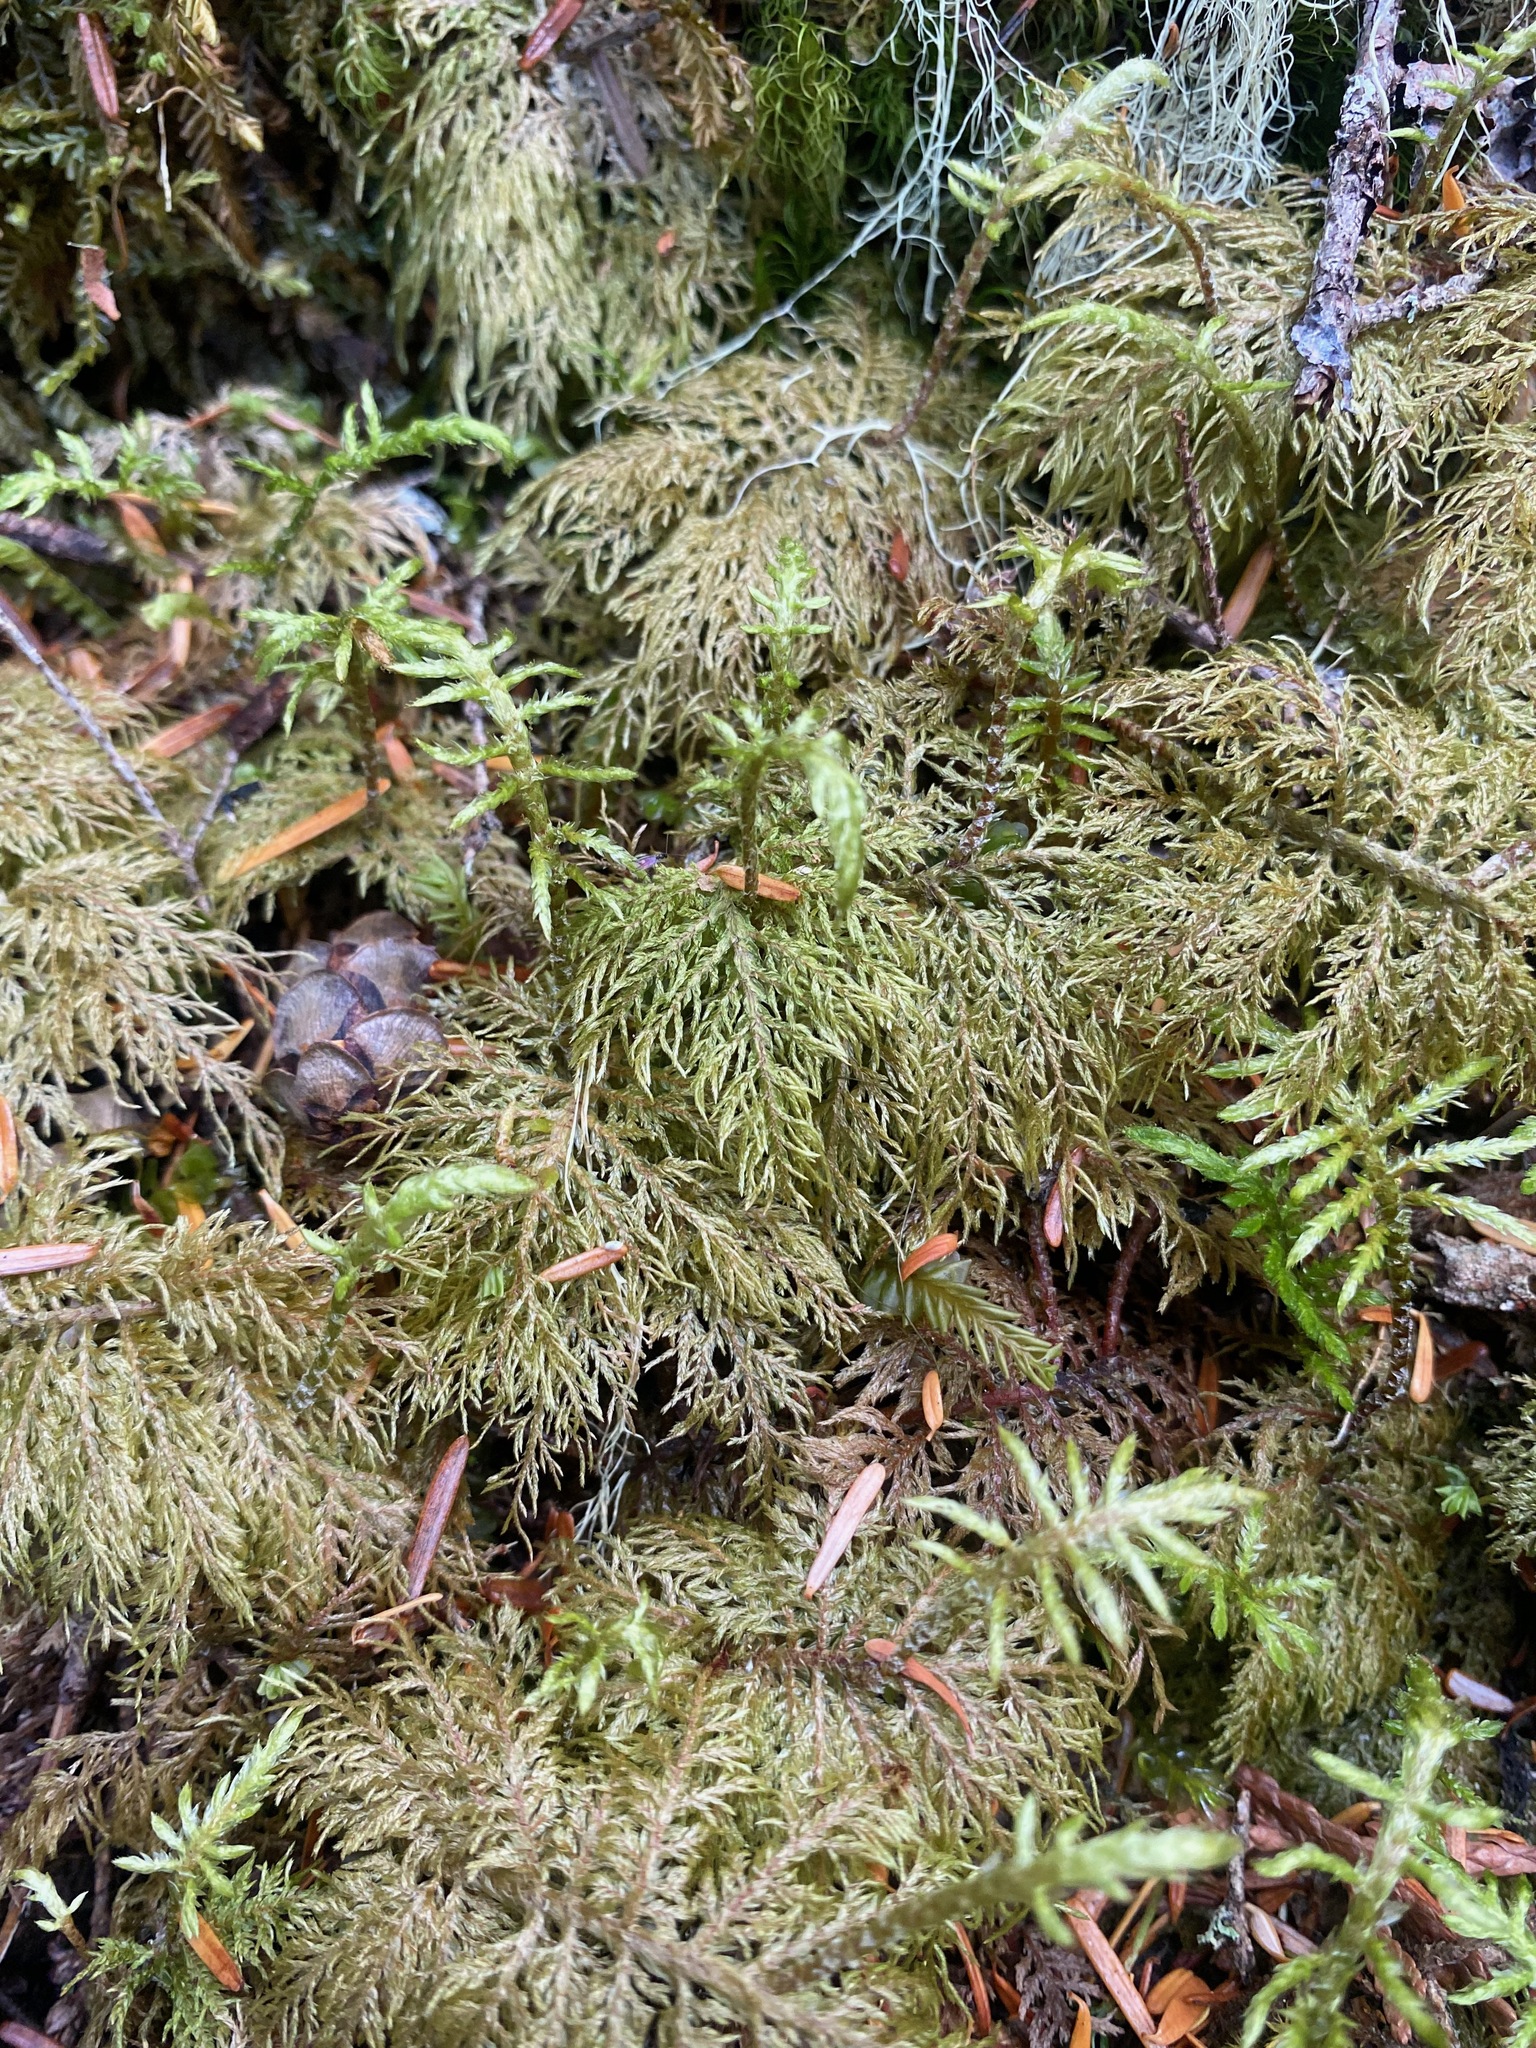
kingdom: Plantae
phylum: Bryophyta
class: Bryopsida
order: Hypnales
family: Hylocomiaceae
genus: Hylocomium
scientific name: Hylocomium splendens
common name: Stairstep moss
